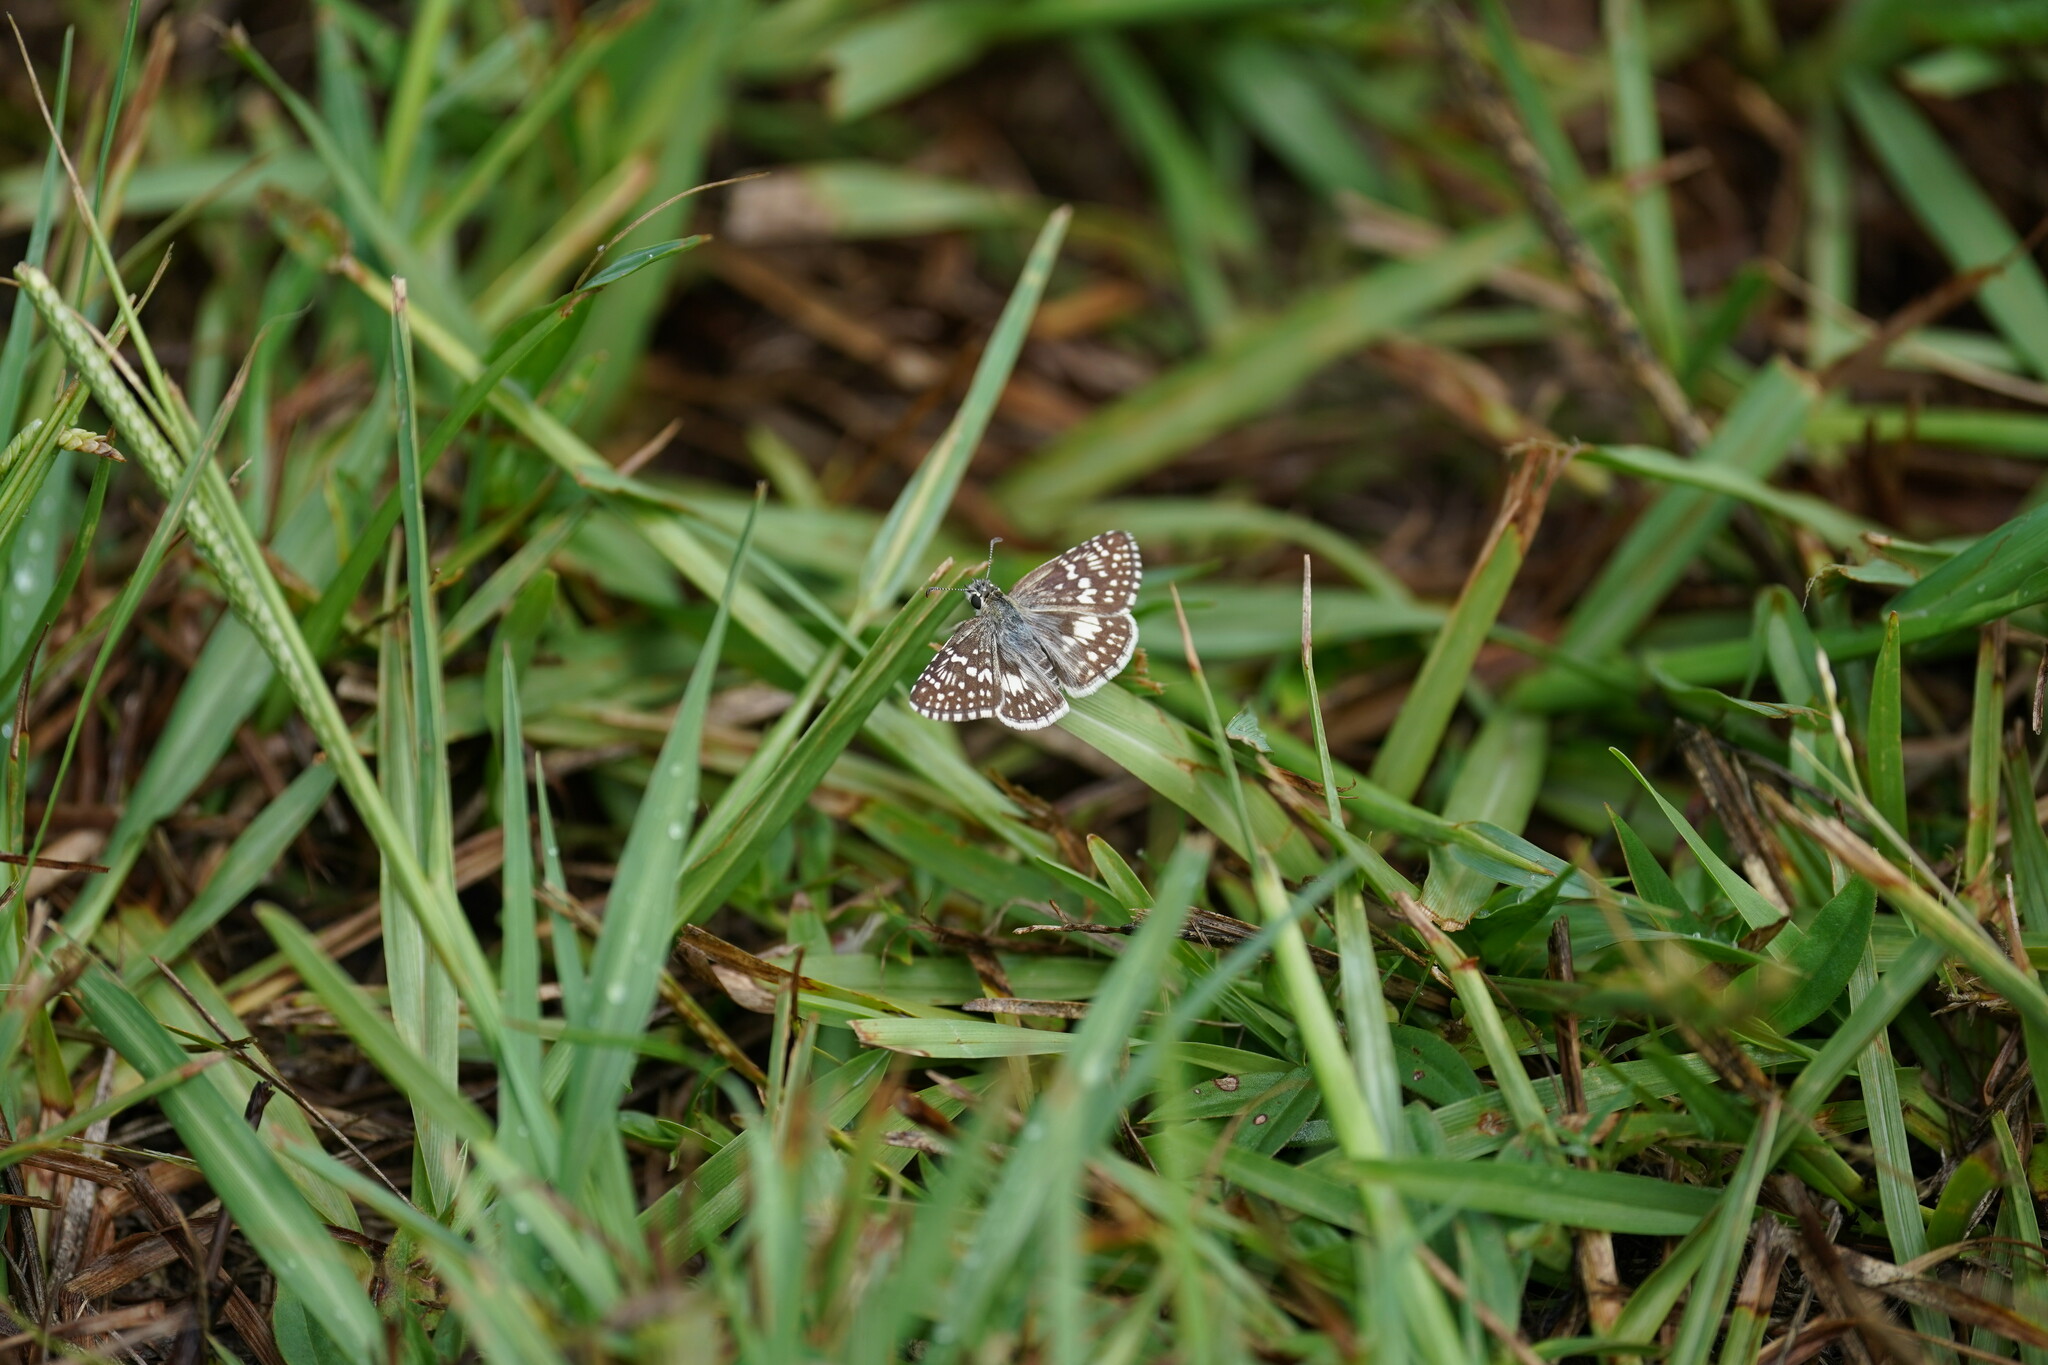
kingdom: Animalia
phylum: Arthropoda
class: Insecta
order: Lepidoptera
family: Hesperiidae
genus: Burnsius
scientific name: Burnsius albezens
